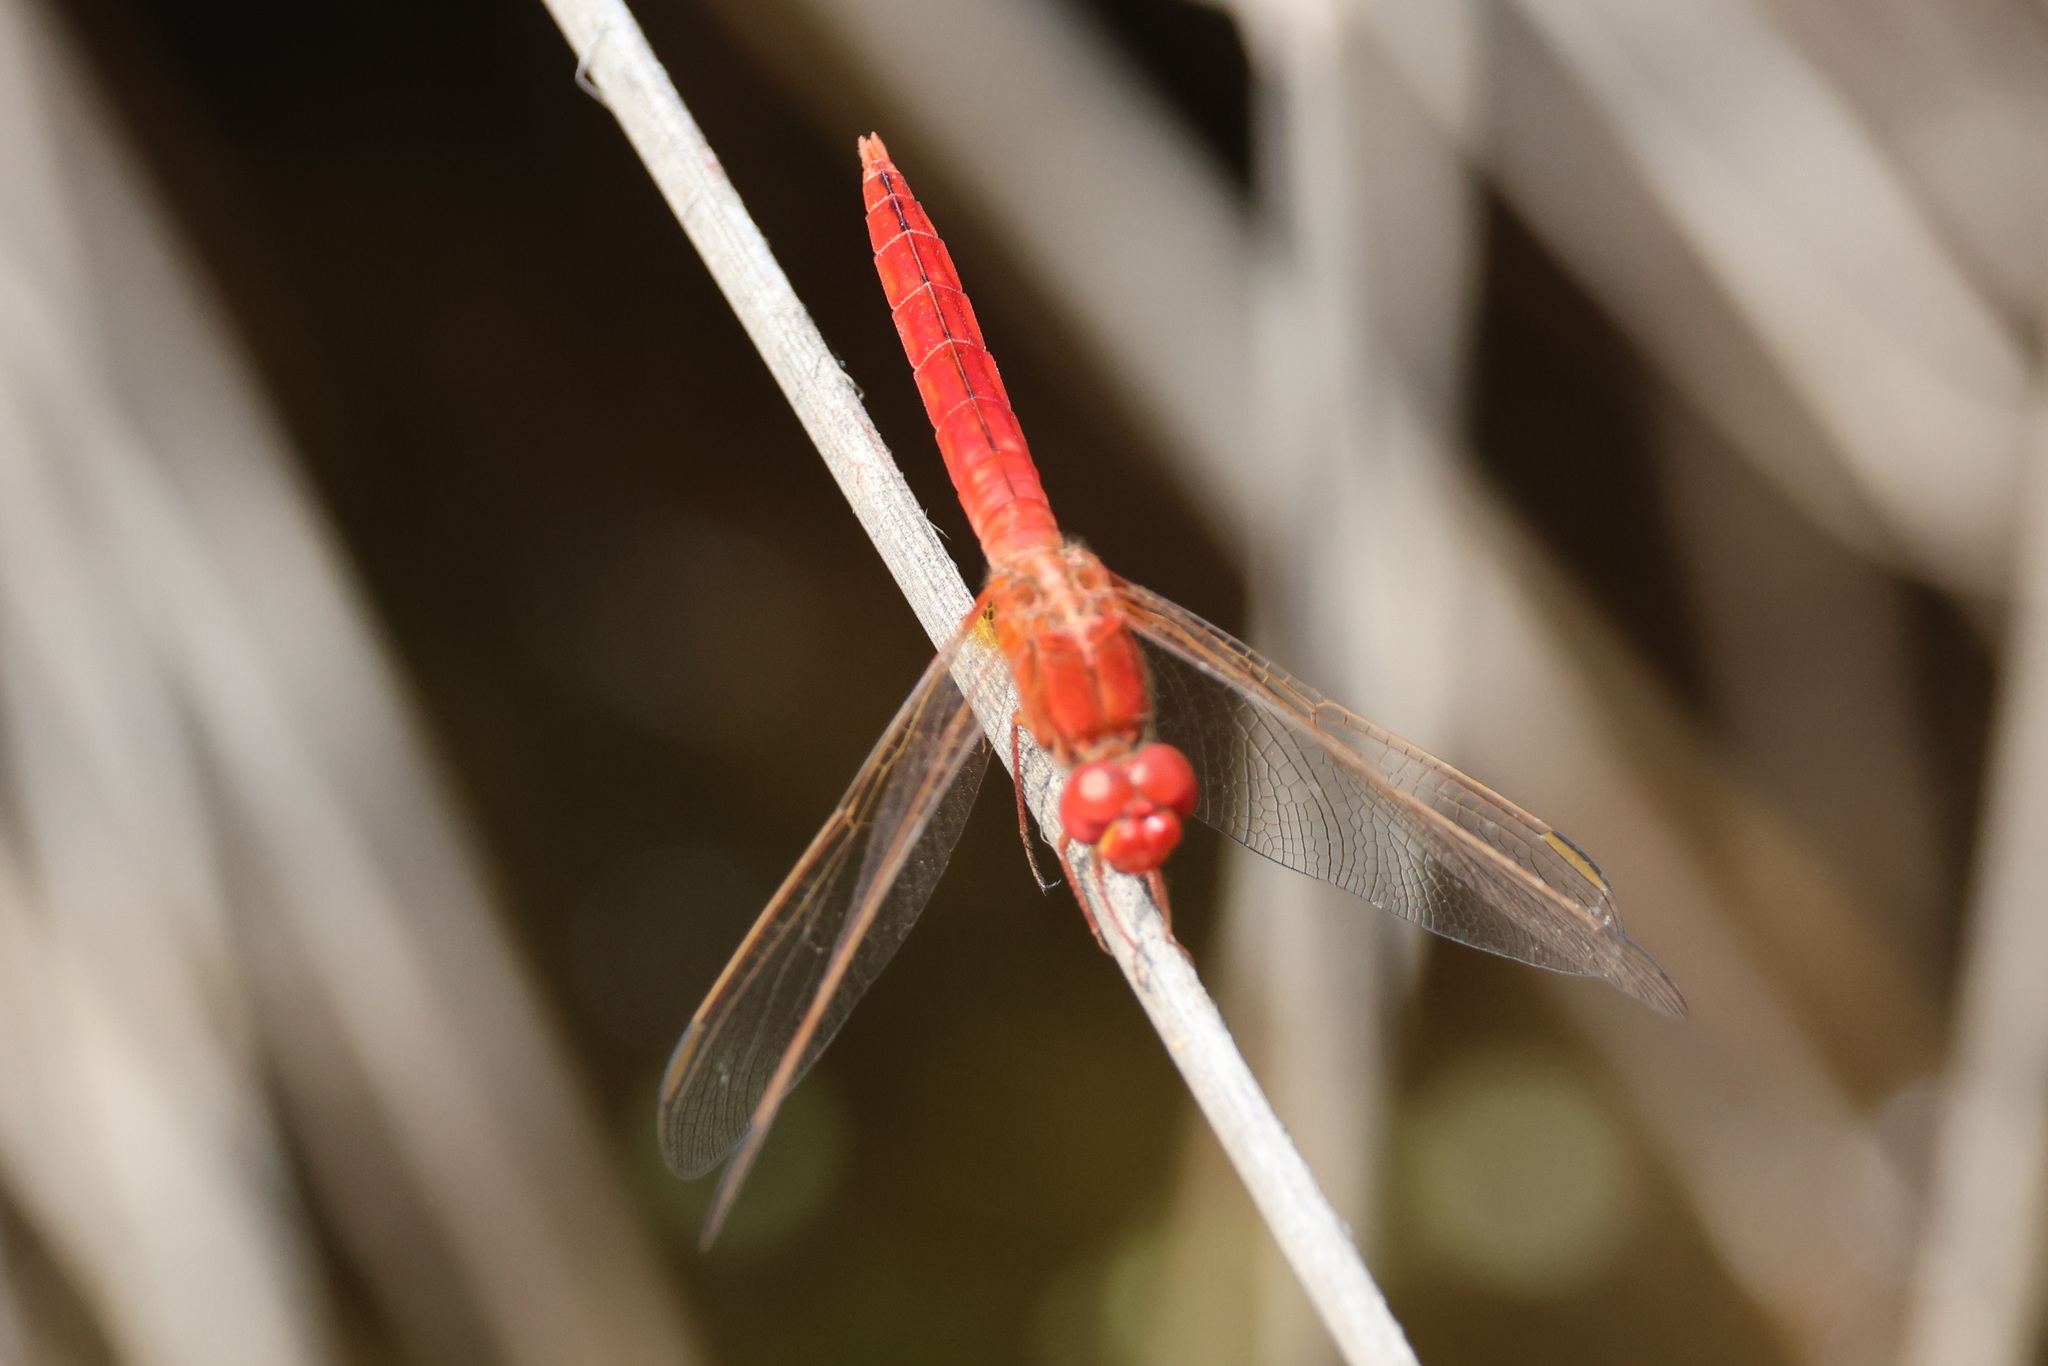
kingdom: Animalia
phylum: Arthropoda
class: Insecta
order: Odonata
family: Libellulidae
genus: Crocothemis
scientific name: Crocothemis erythraea
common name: Scarlet dragonfly
